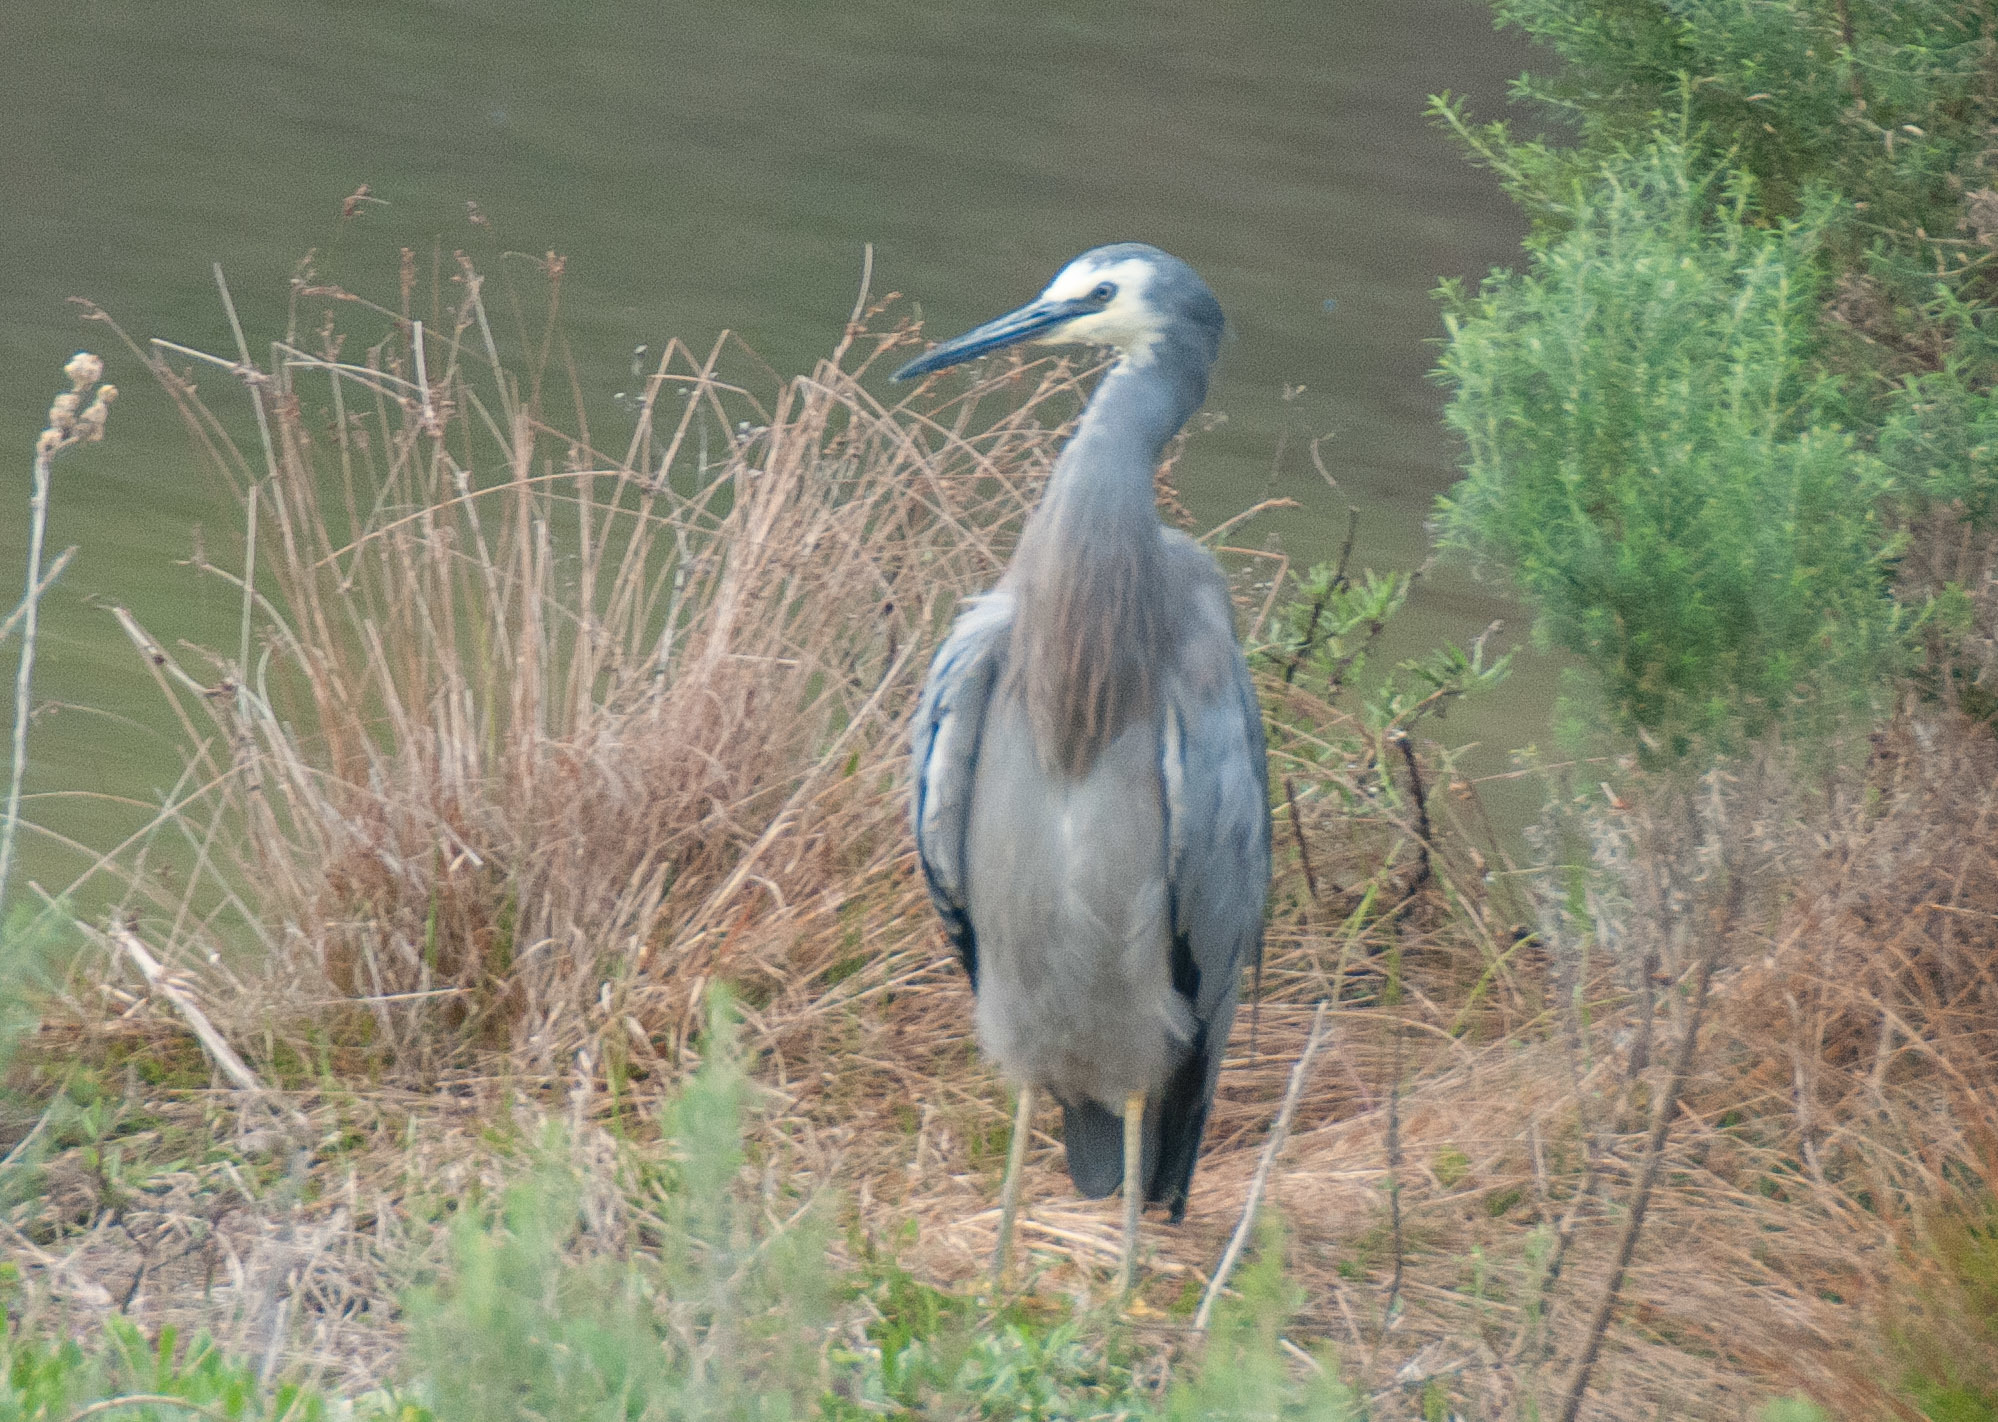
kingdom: Animalia
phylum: Chordata
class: Aves
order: Pelecaniformes
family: Ardeidae
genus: Egretta
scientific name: Egretta novaehollandiae
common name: White-faced heron
